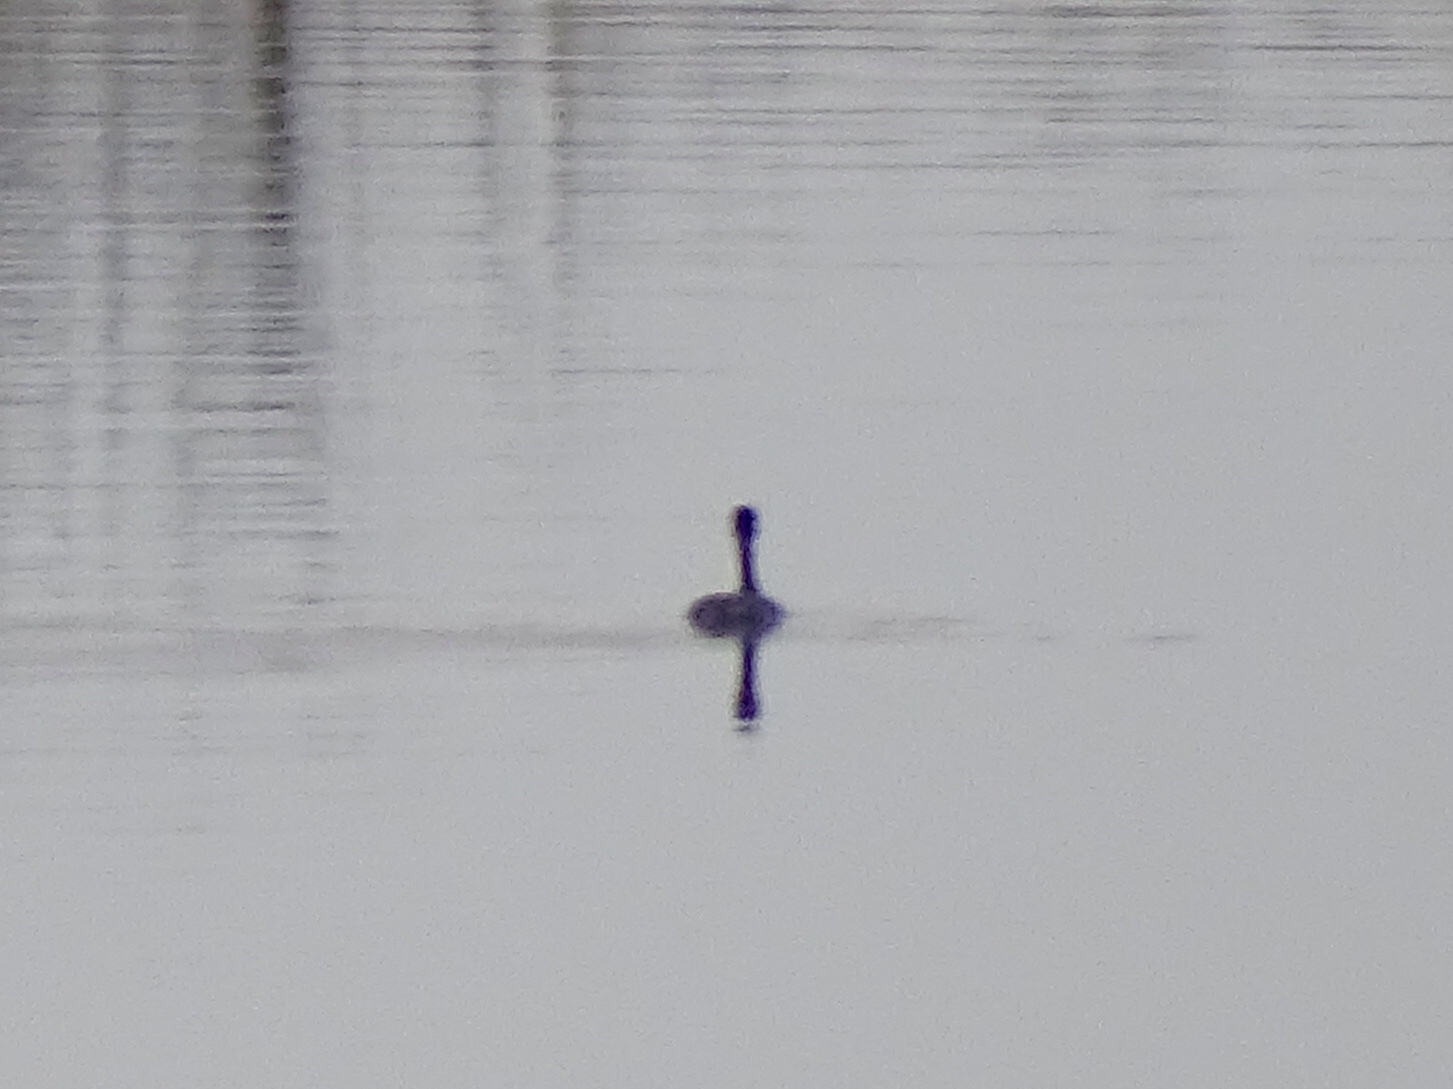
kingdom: Animalia
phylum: Chordata
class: Aves
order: Podicipediformes
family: Podicipedidae
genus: Podiceps
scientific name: Podiceps nigricollis
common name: Black-necked grebe
